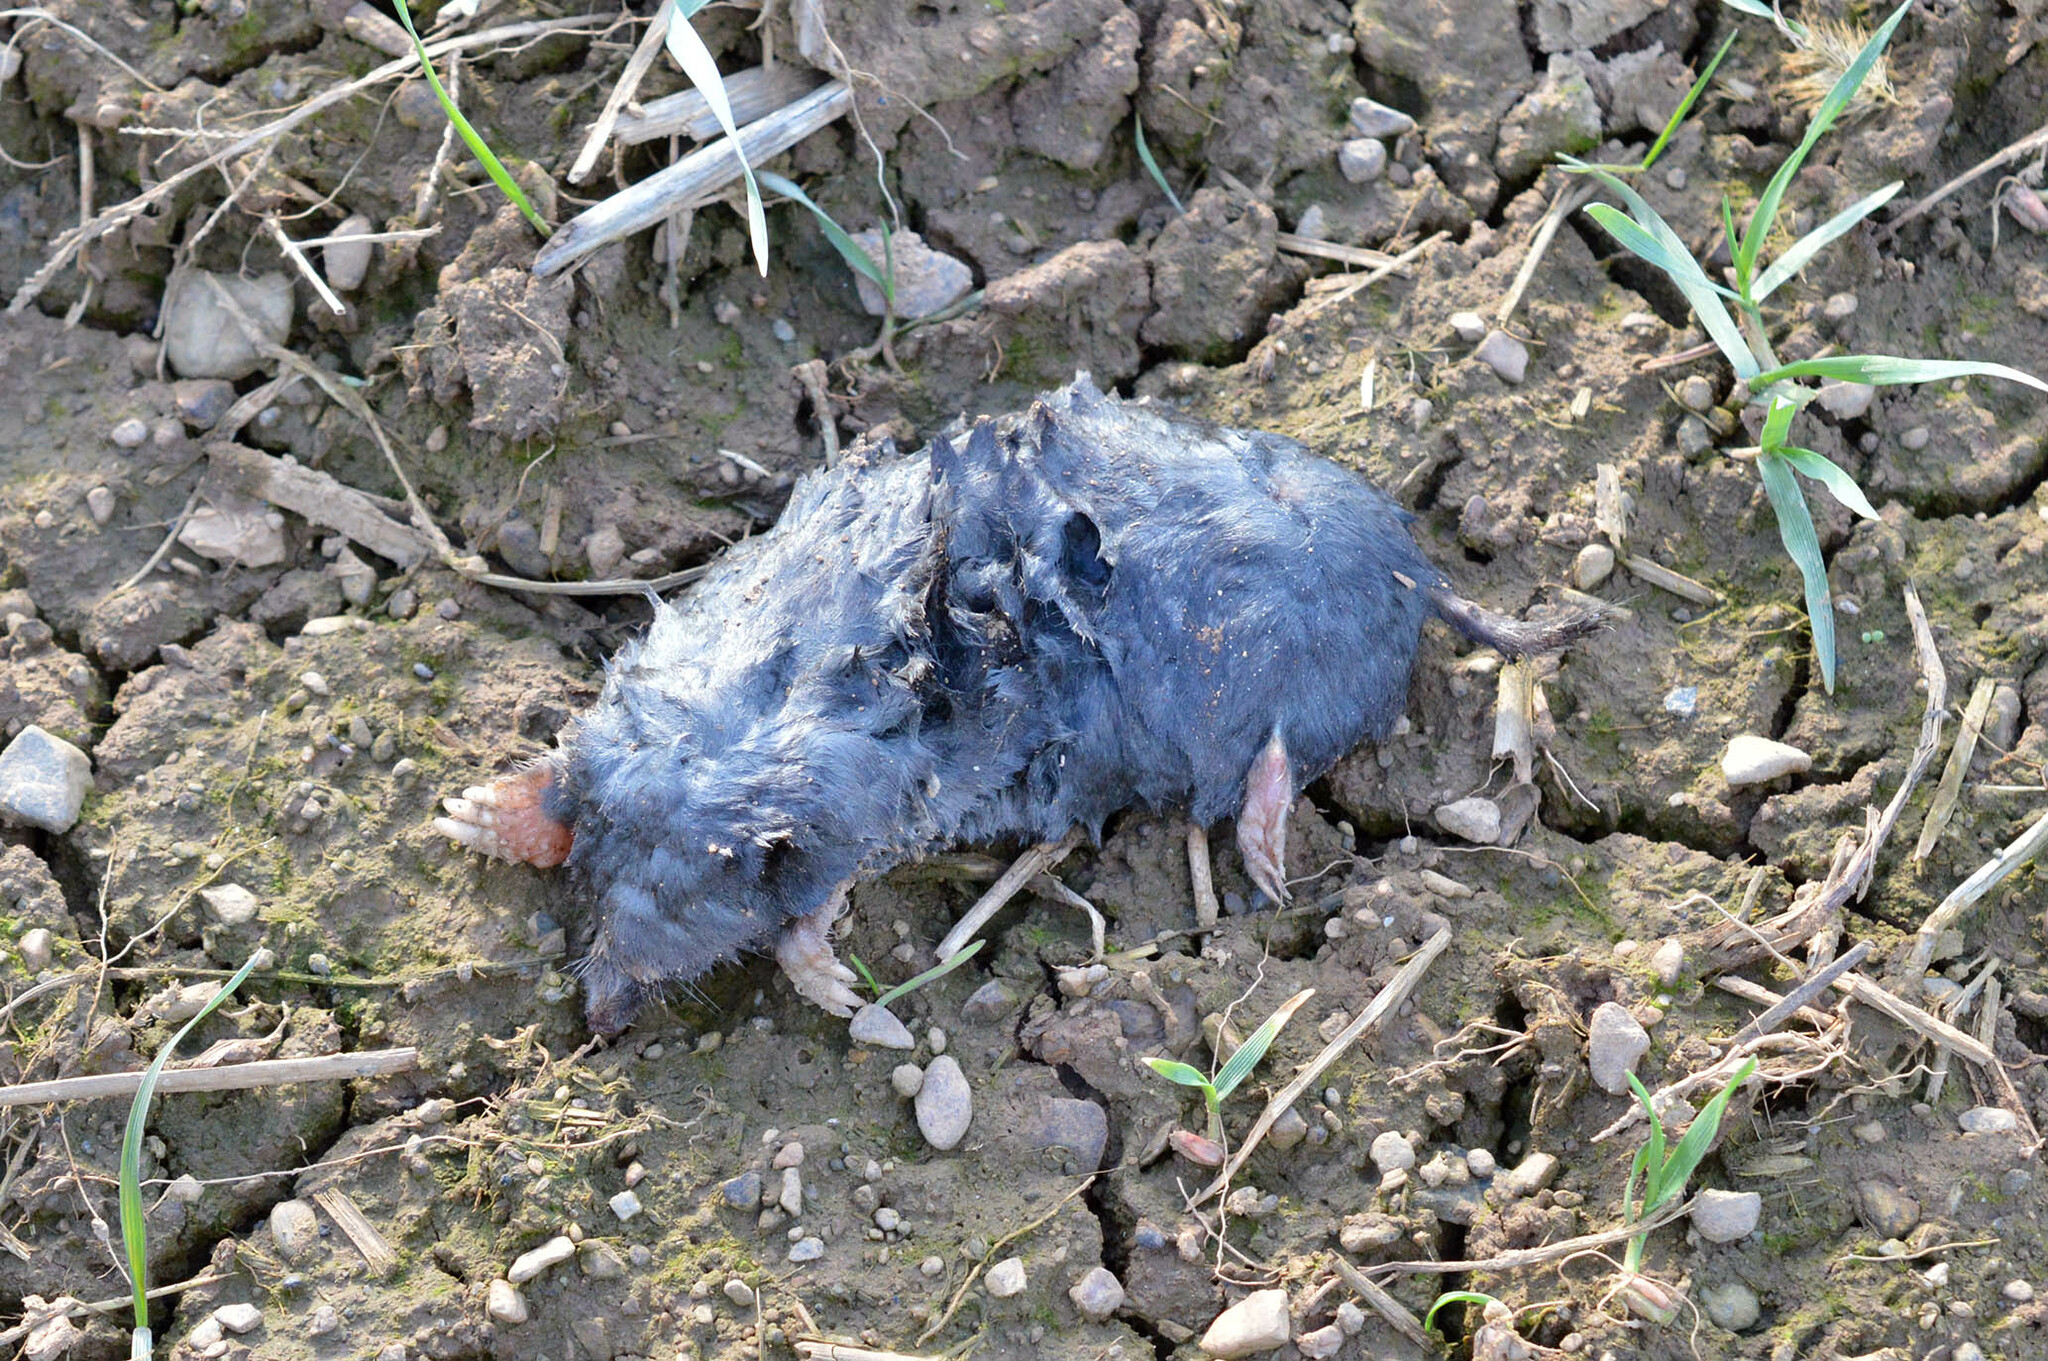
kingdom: Animalia
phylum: Chordata
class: Mammalia
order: Soricomorpha
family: Talpidae
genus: Talpa
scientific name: Talpa europaea
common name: European mole
